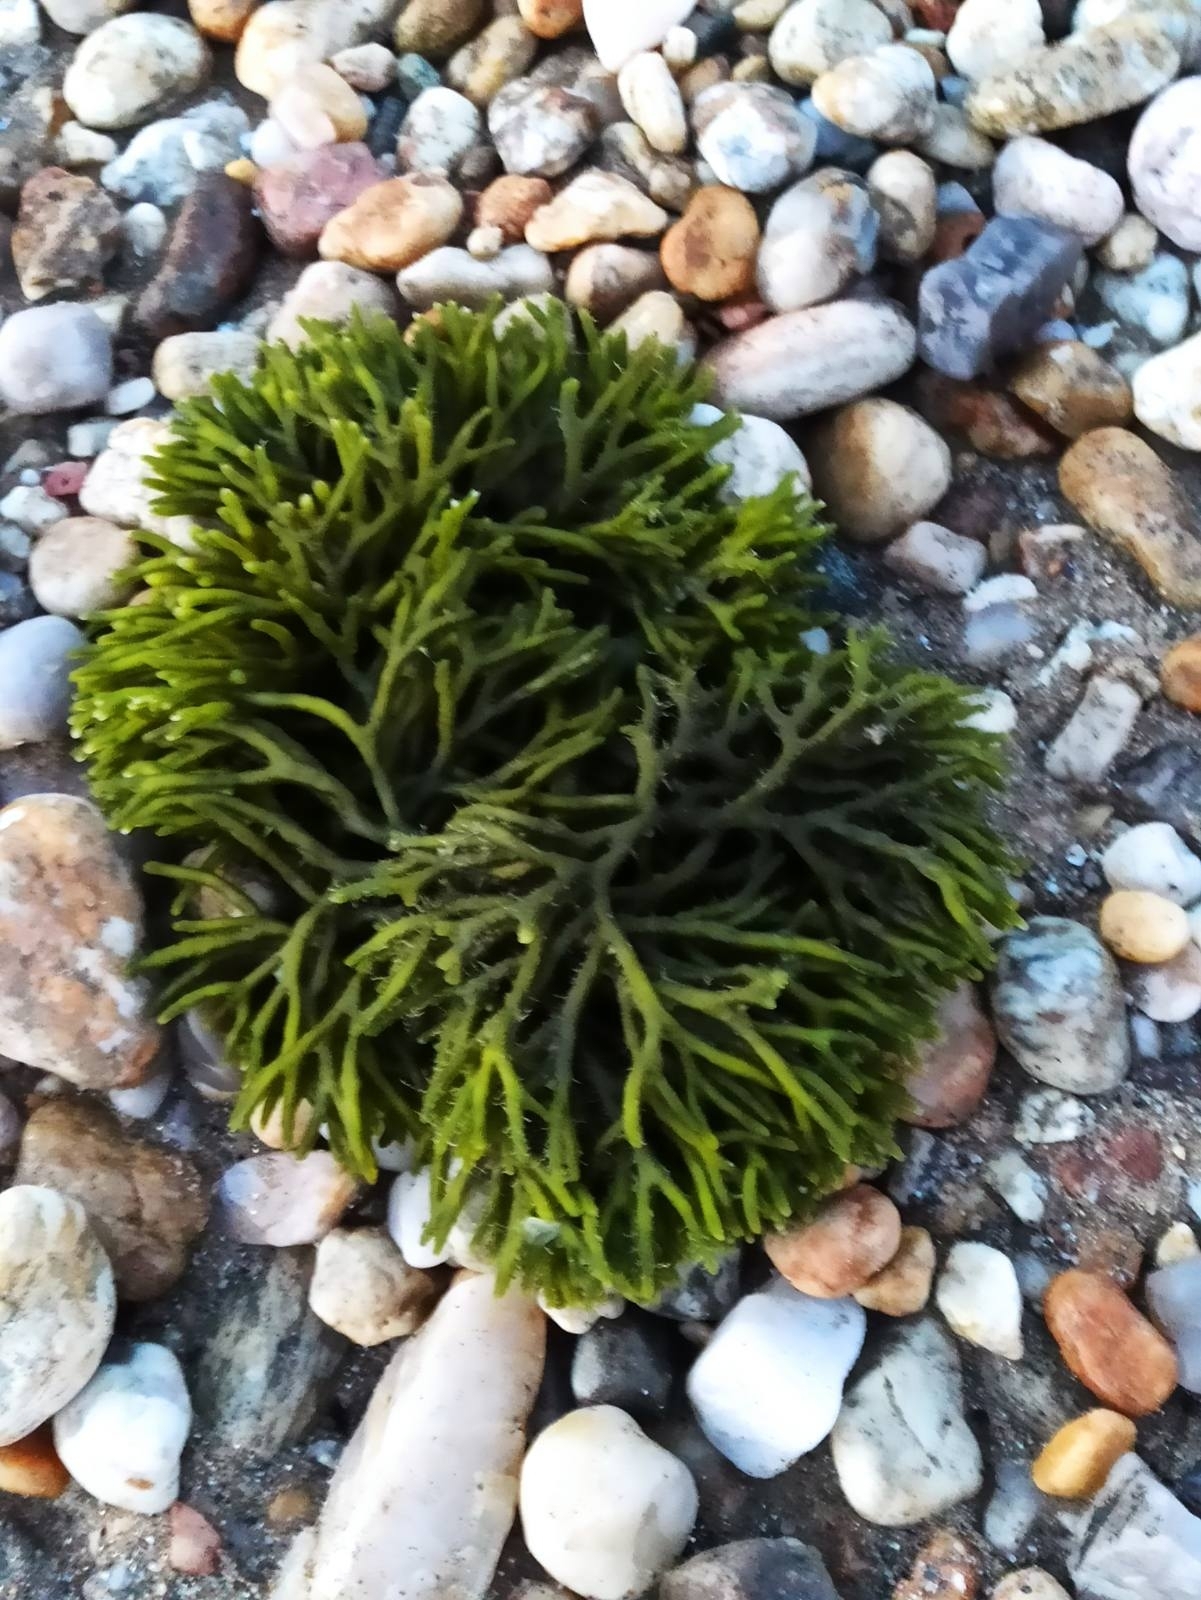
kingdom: Plantae
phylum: Chlorophyta
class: Ulvophyceae
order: Bryopsidales
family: Codiaceae
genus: Codium
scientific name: Codium fragile
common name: Dead man's fingers
